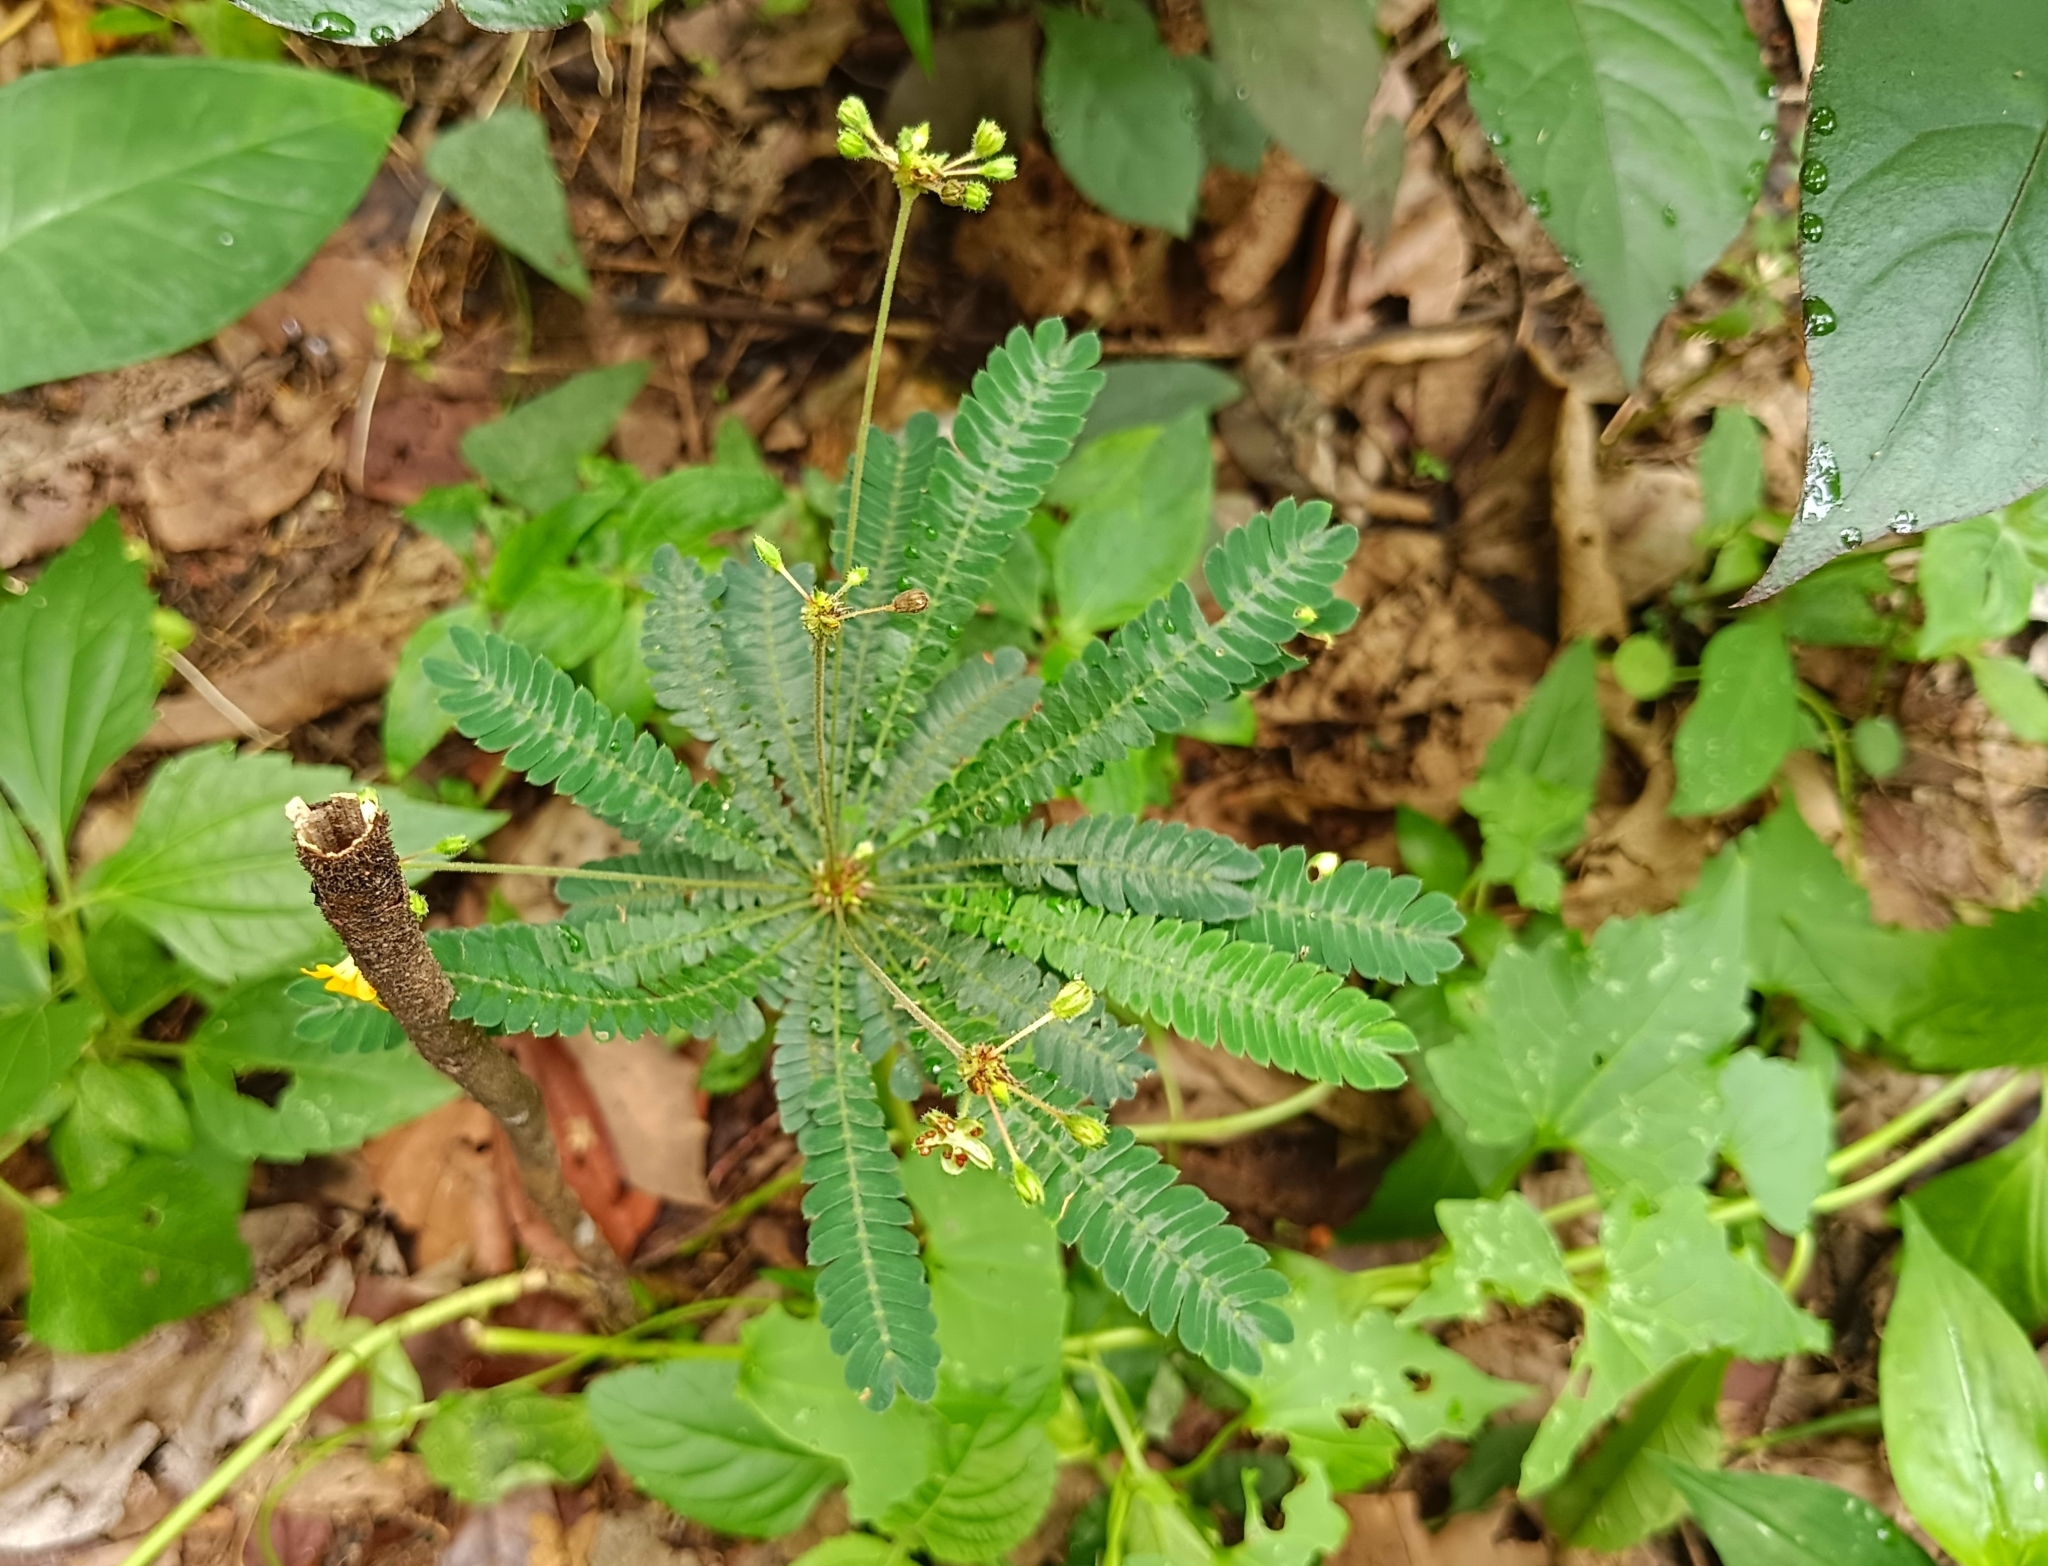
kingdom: Plantae
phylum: Tracheophyta
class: Magnoliopsida
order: Oxalidales
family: Oxalidaceae
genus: Biophytum
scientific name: Biophytum sensitivum
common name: Lifeplant
